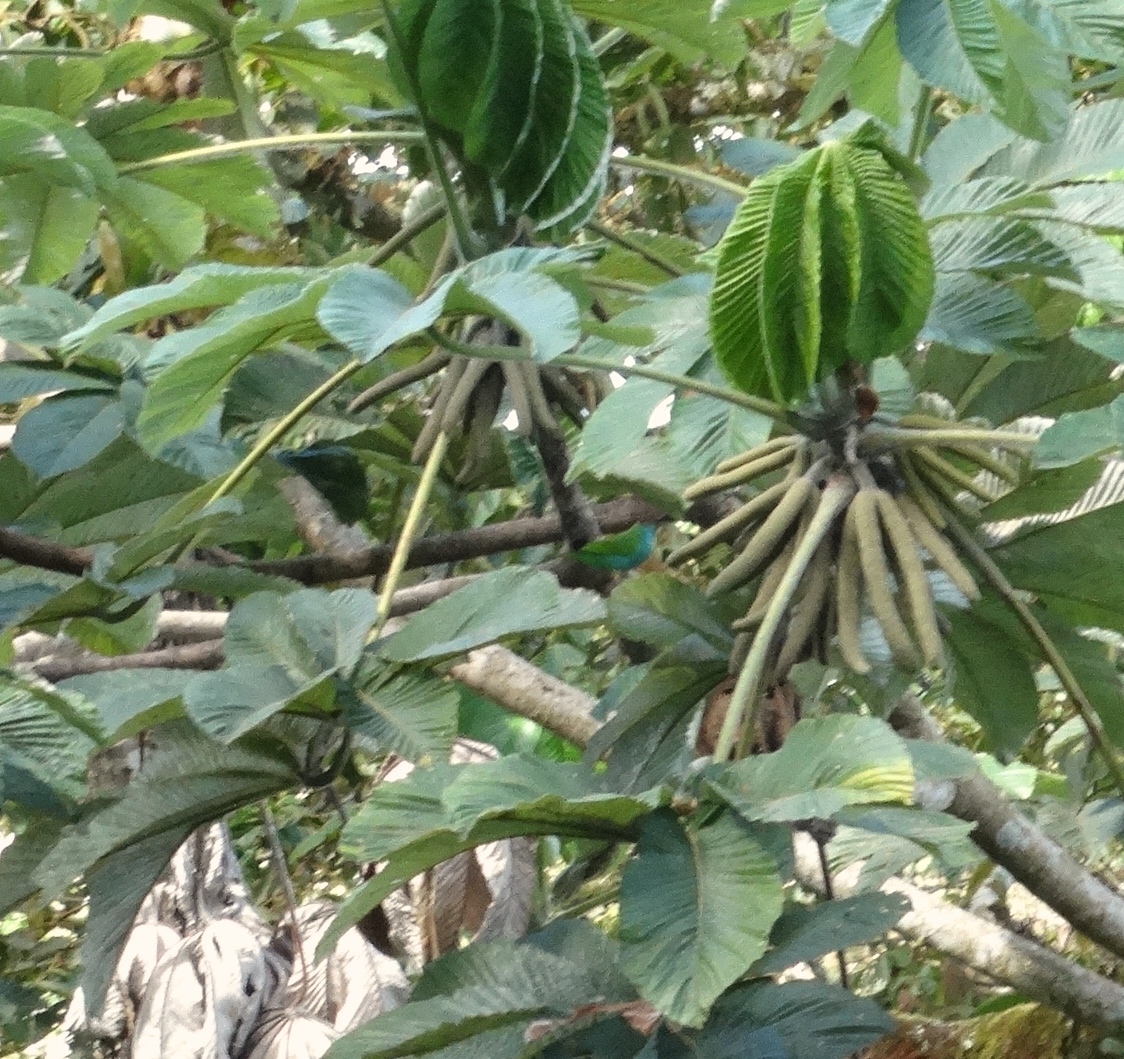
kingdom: Animalia
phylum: Chordata
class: Aves
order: Passeriformes
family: Thraupidae
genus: Tangara
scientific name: Tangara gyrola
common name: Bay-headed tanager
